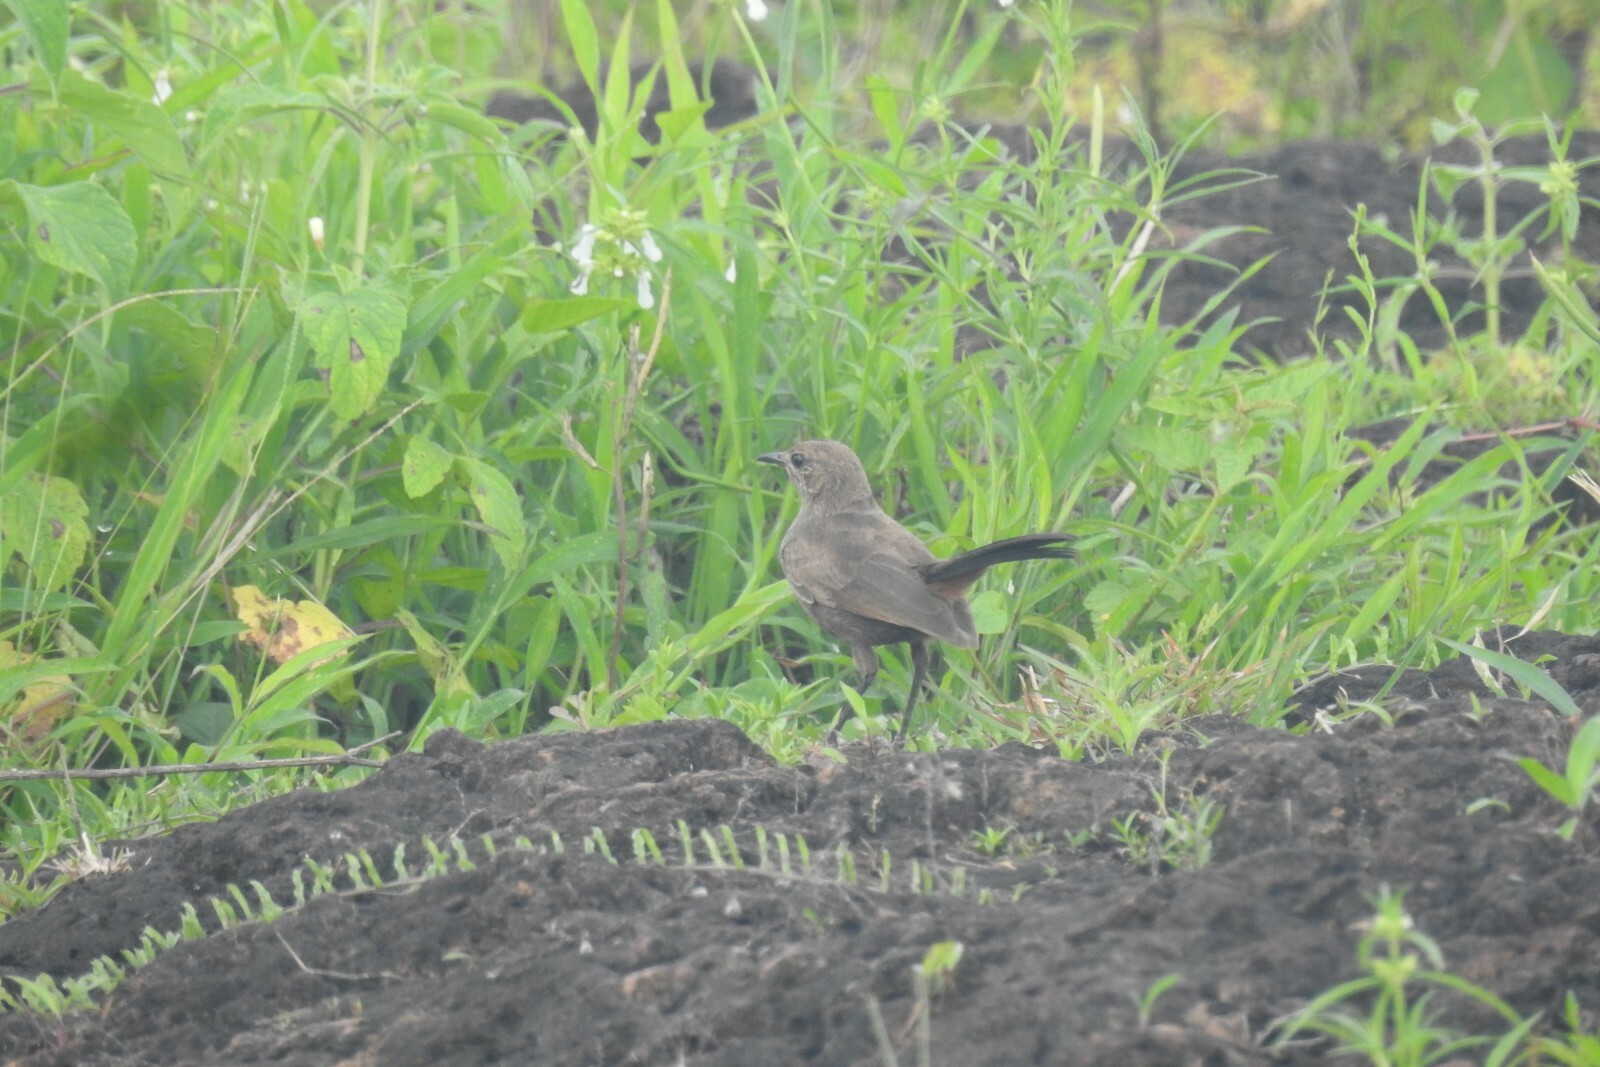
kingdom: Animalia
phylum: Chordata
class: Aves
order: Passeriformes
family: Muscicapidae
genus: Saxicoloides
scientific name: Saxicoloides fulicatus
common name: Indian robin
